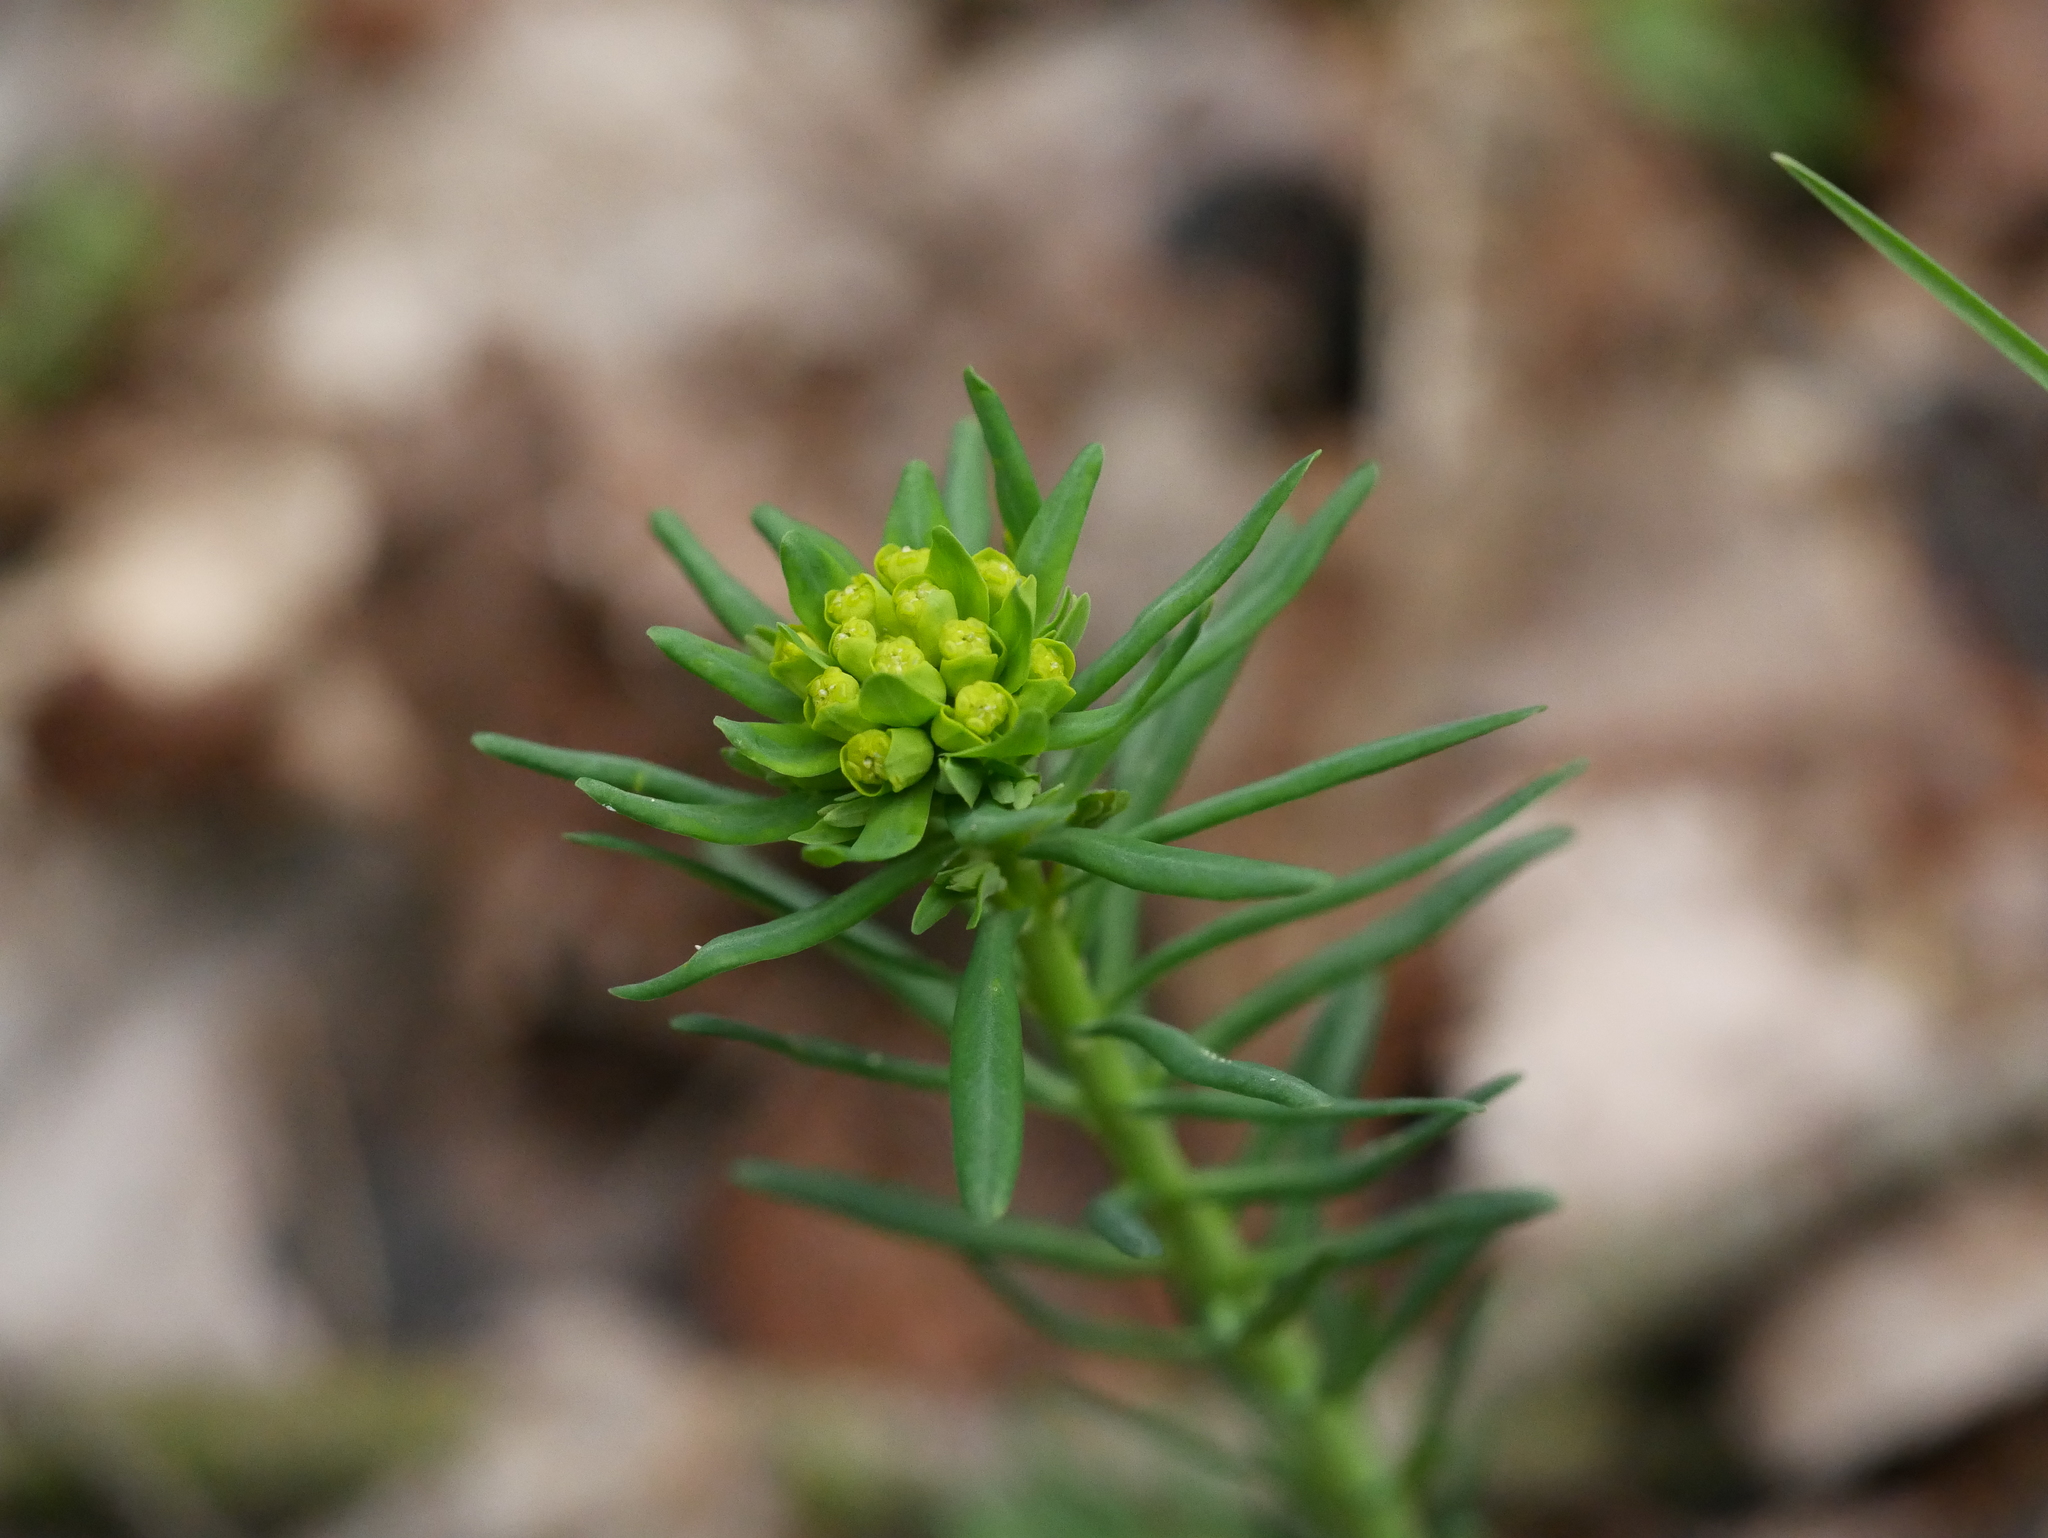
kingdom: Plantae
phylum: Tracheophyta
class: Magnoliopsida
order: Malpighiales
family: Euphorbiaceae
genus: Euphorbia
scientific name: Euphorbia cyparissias
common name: Cypress spurge
